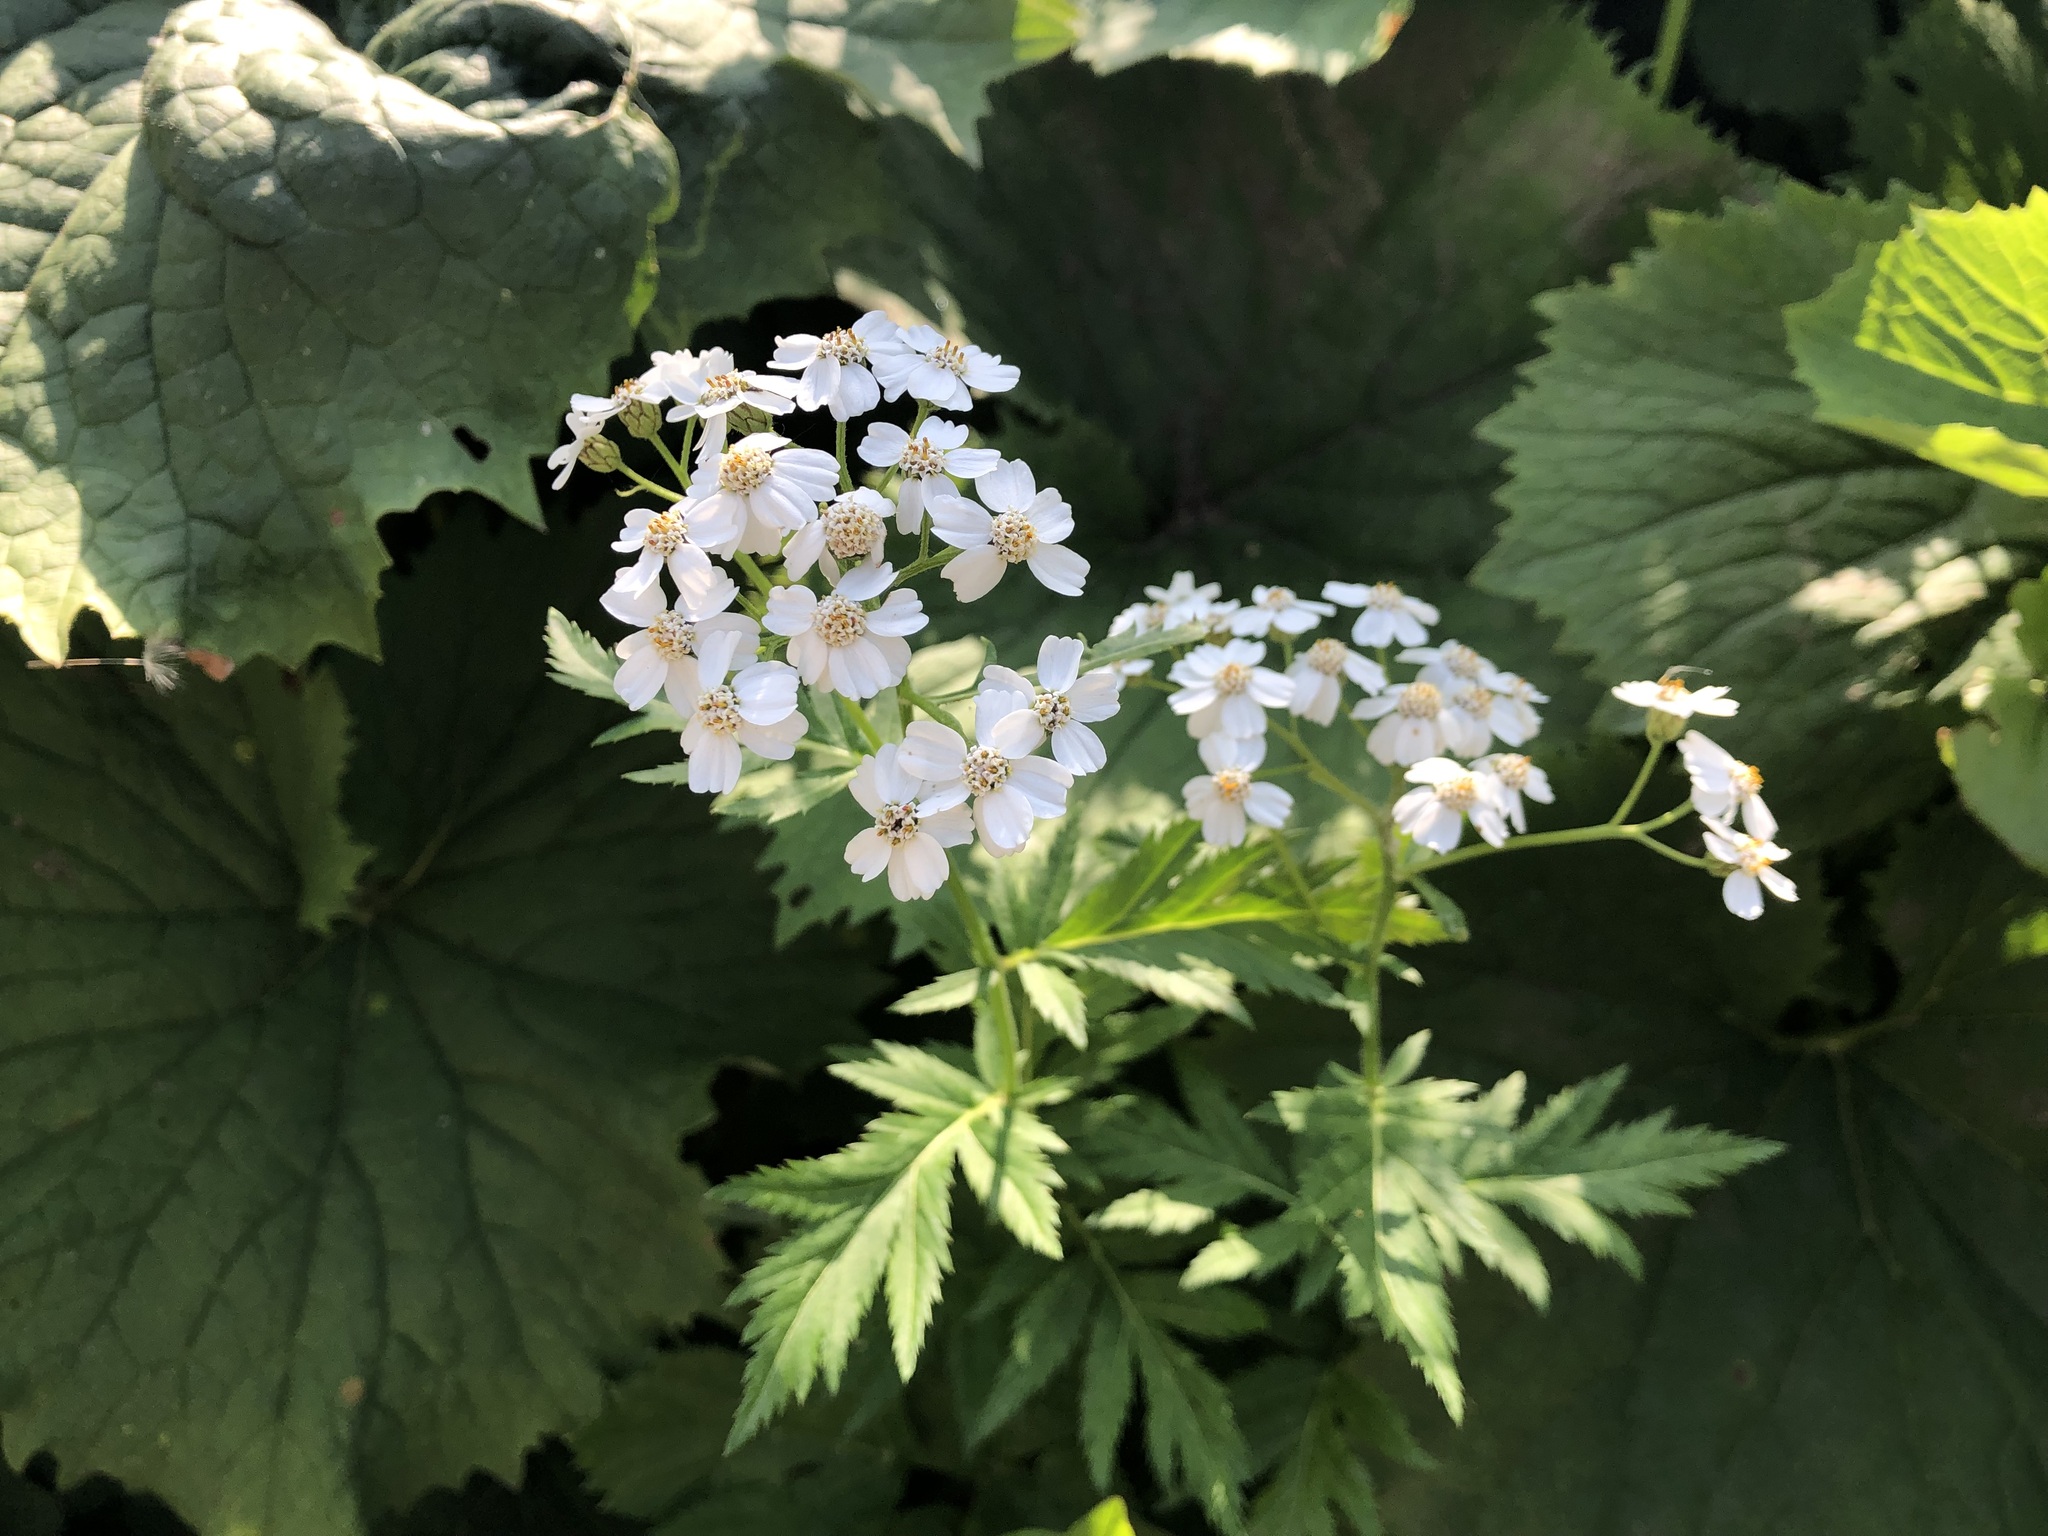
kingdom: Plantae
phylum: Tracheophyta
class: Magnoliopsida
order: Asterales
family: Asteraceae
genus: Achillea
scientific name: Achillea macrophylla
